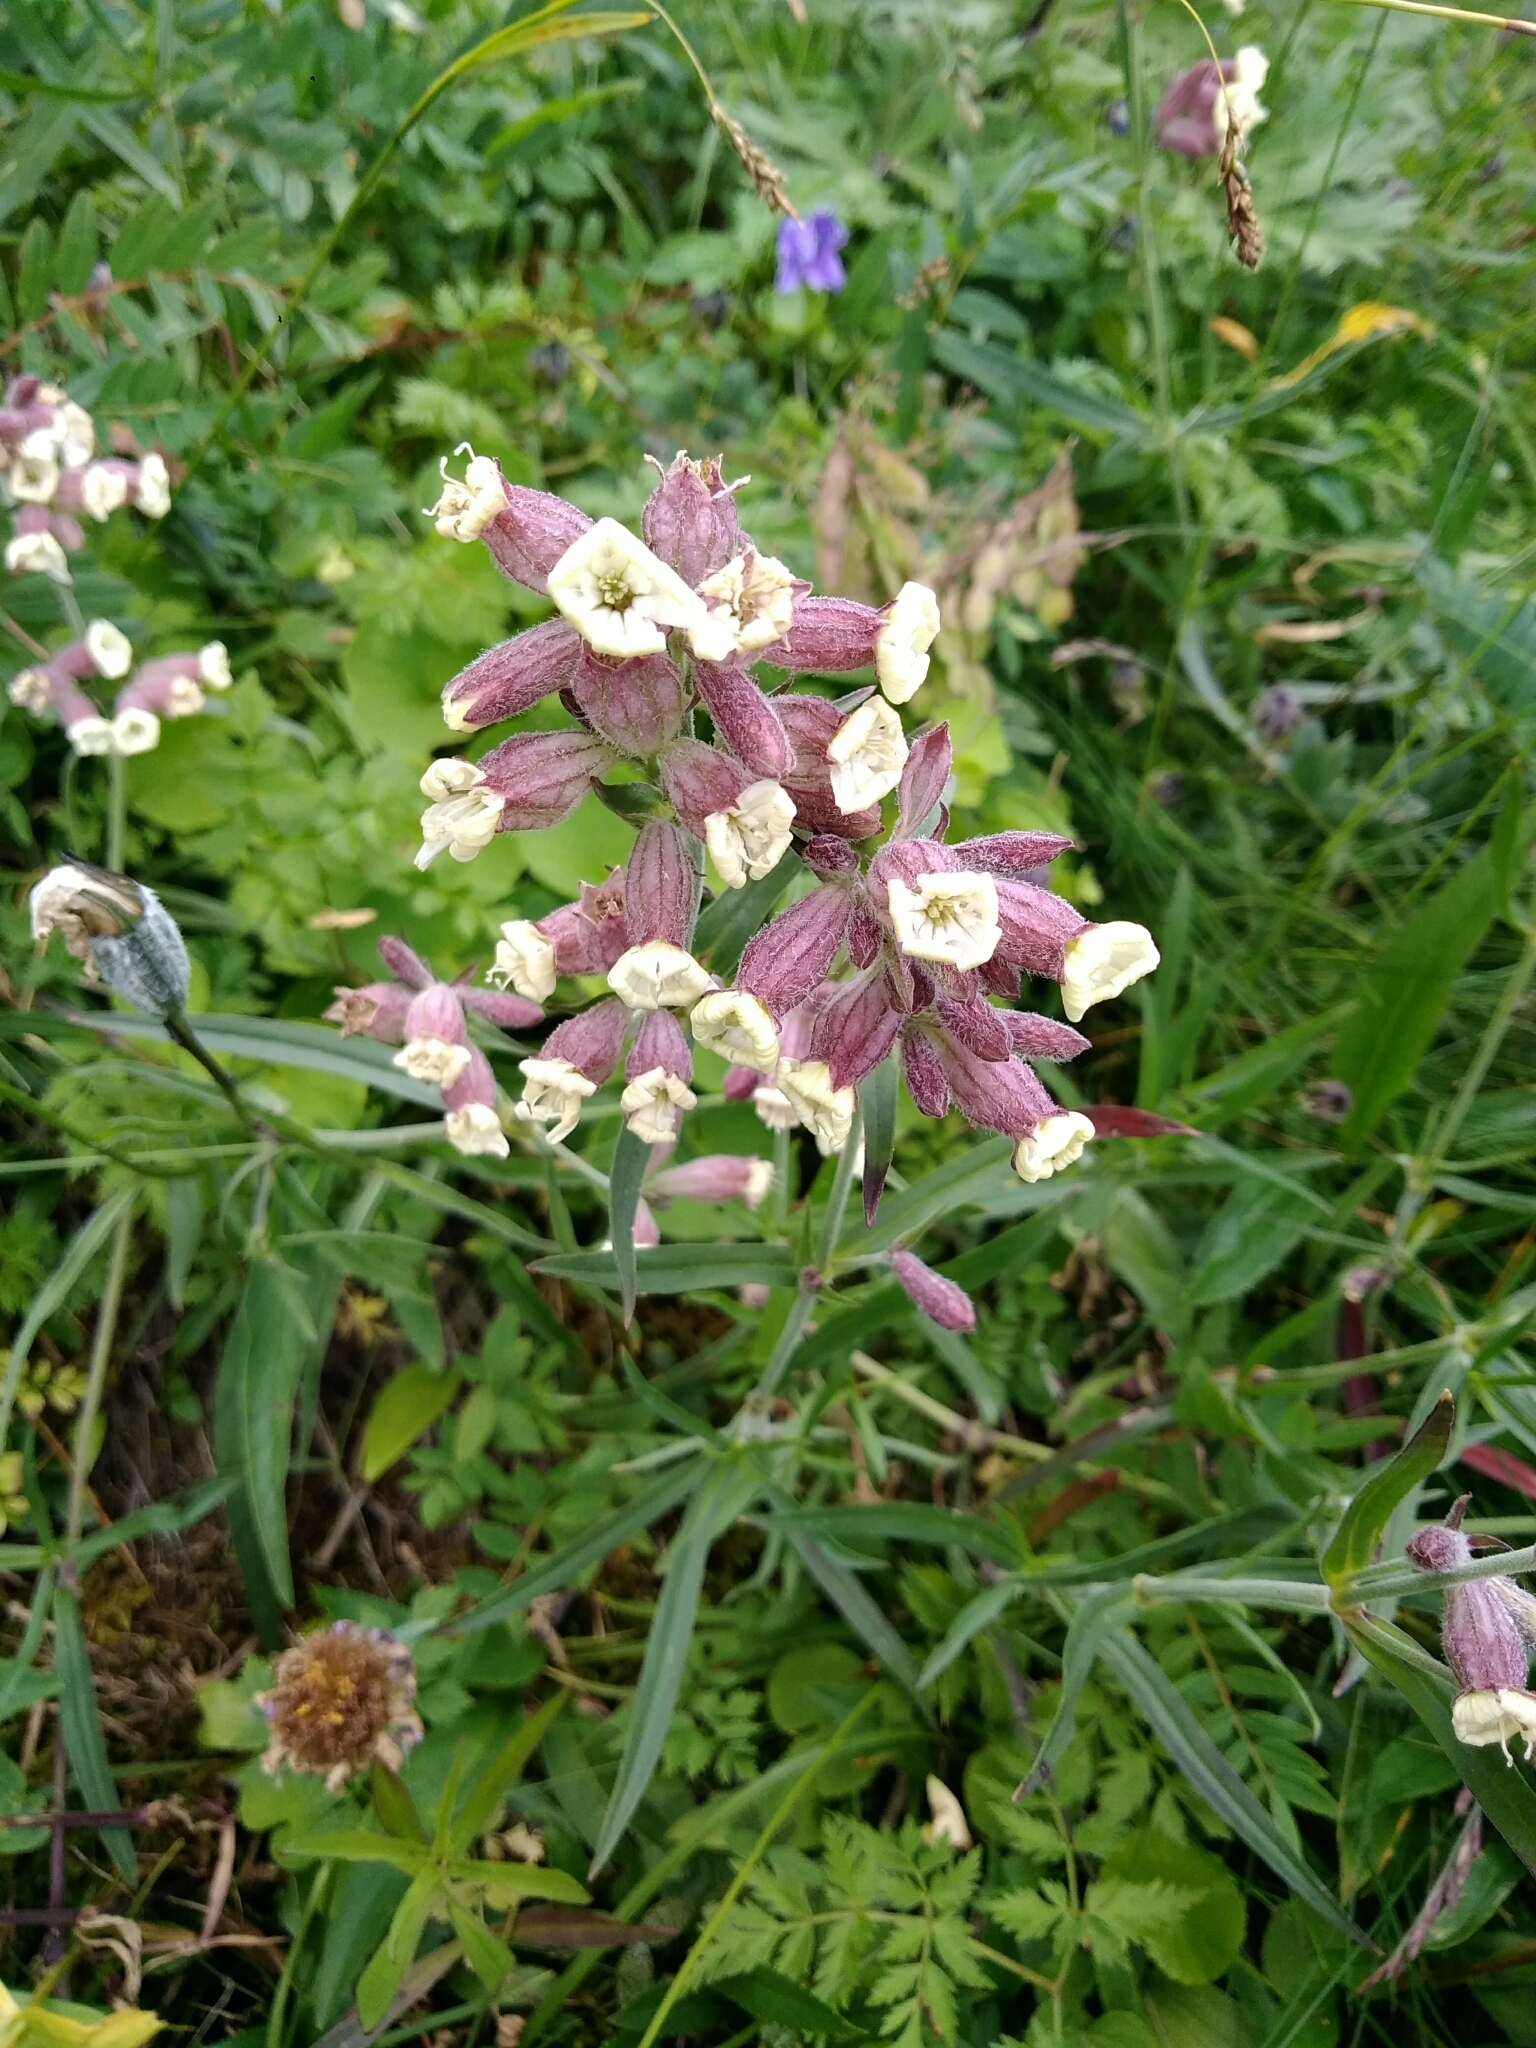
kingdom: Plantae
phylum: Tracheophyta
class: Magnoliopsida
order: Caryophyllales
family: Caryophyllaceae
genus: Silene
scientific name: Silene amoena
